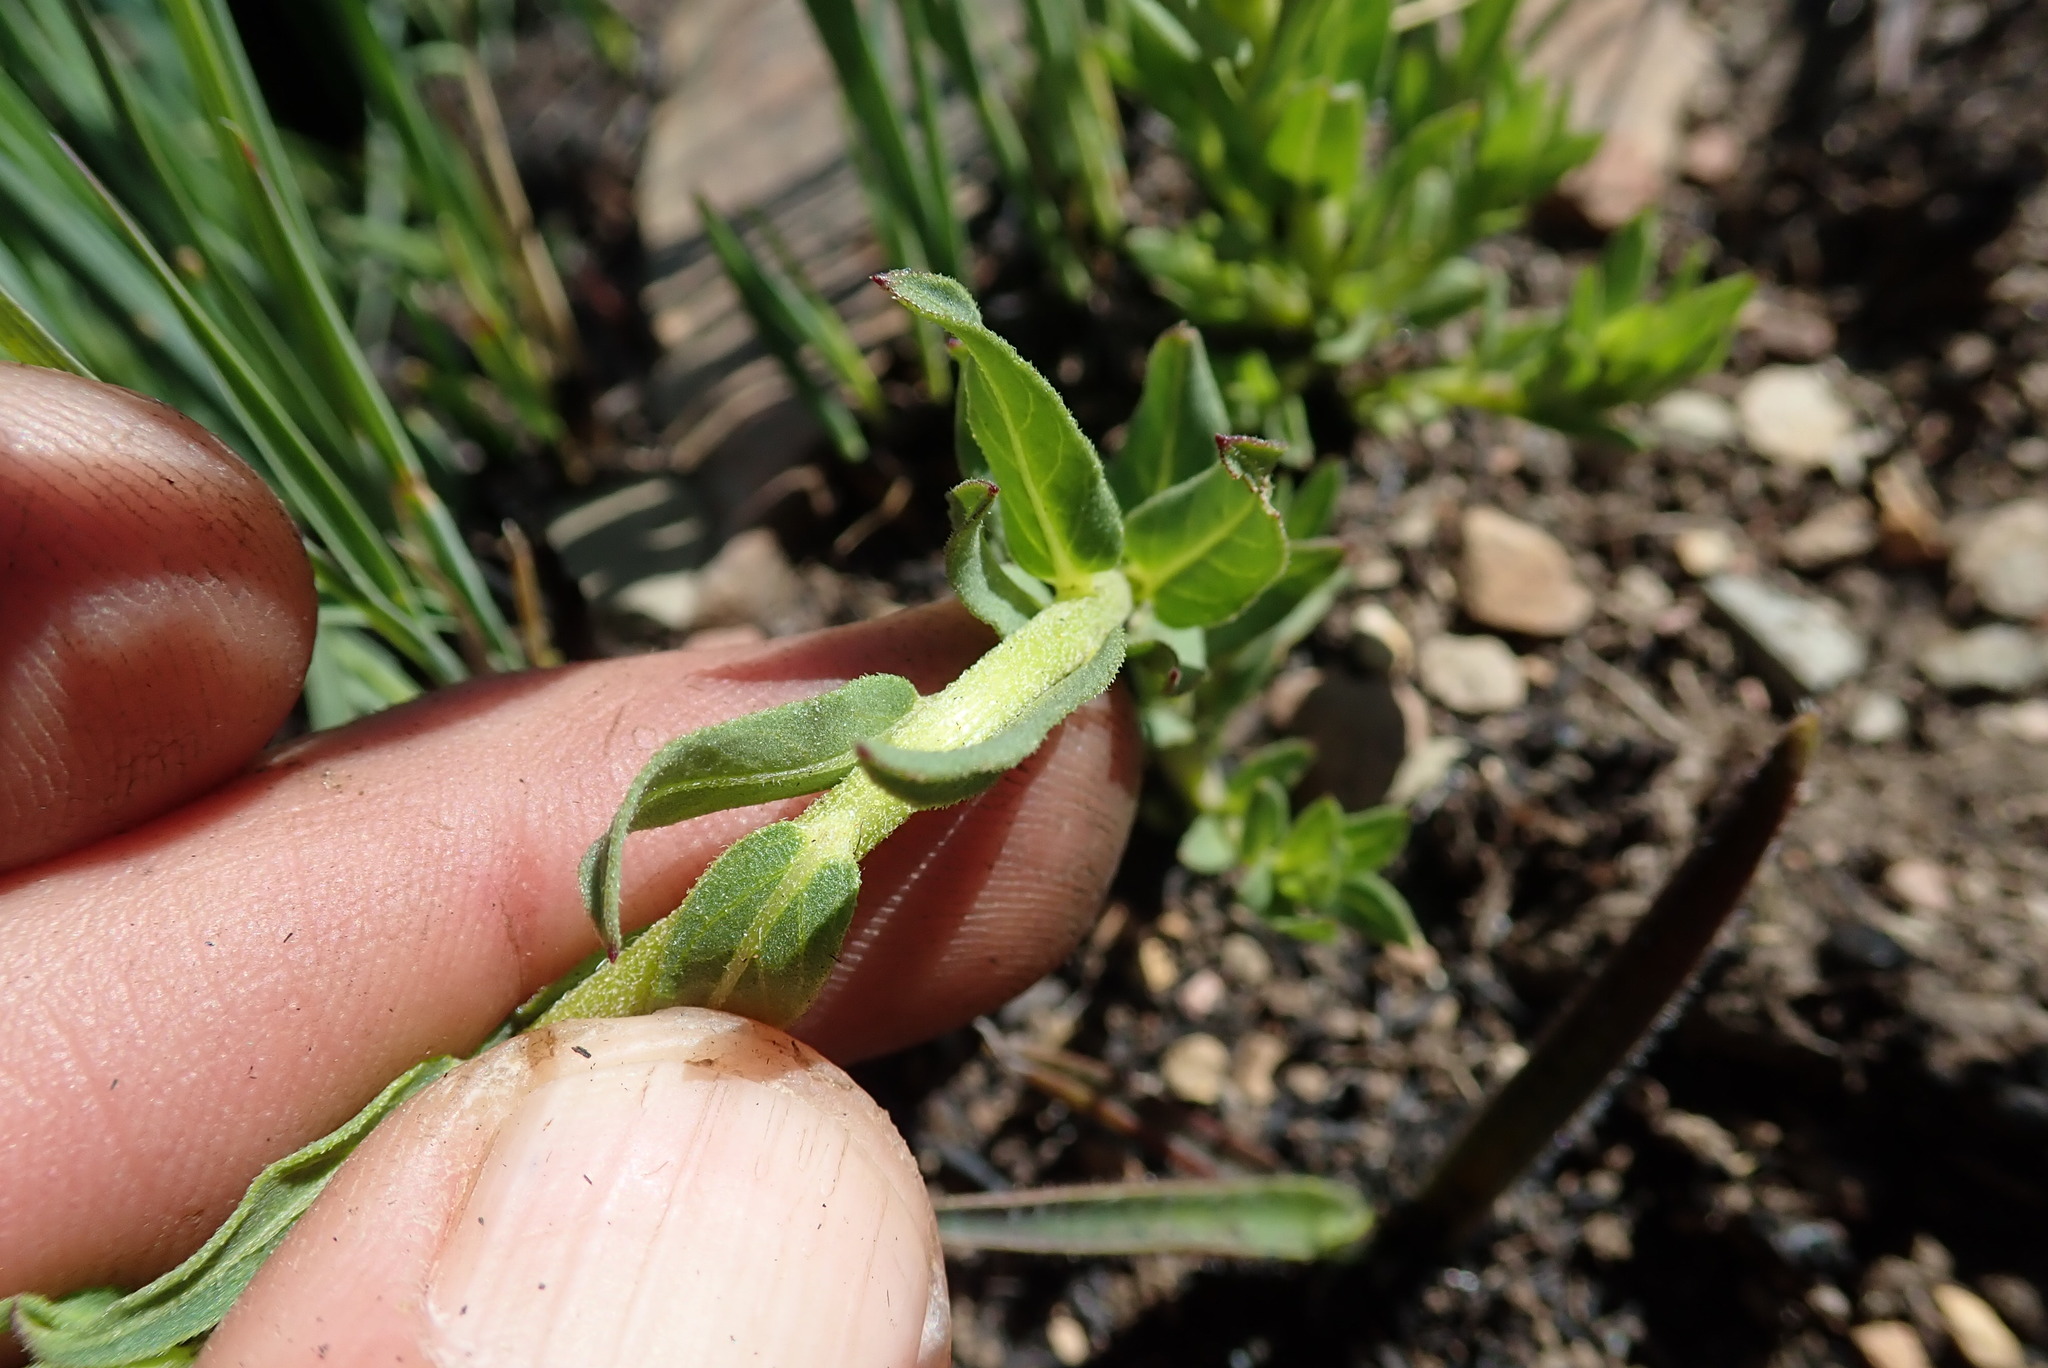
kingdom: Plantae
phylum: Tracheophyta
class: Magnoliopsida
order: Asterales
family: Asteraceae
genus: Pseudopegolettia
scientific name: Pseudopegolettia tenella
